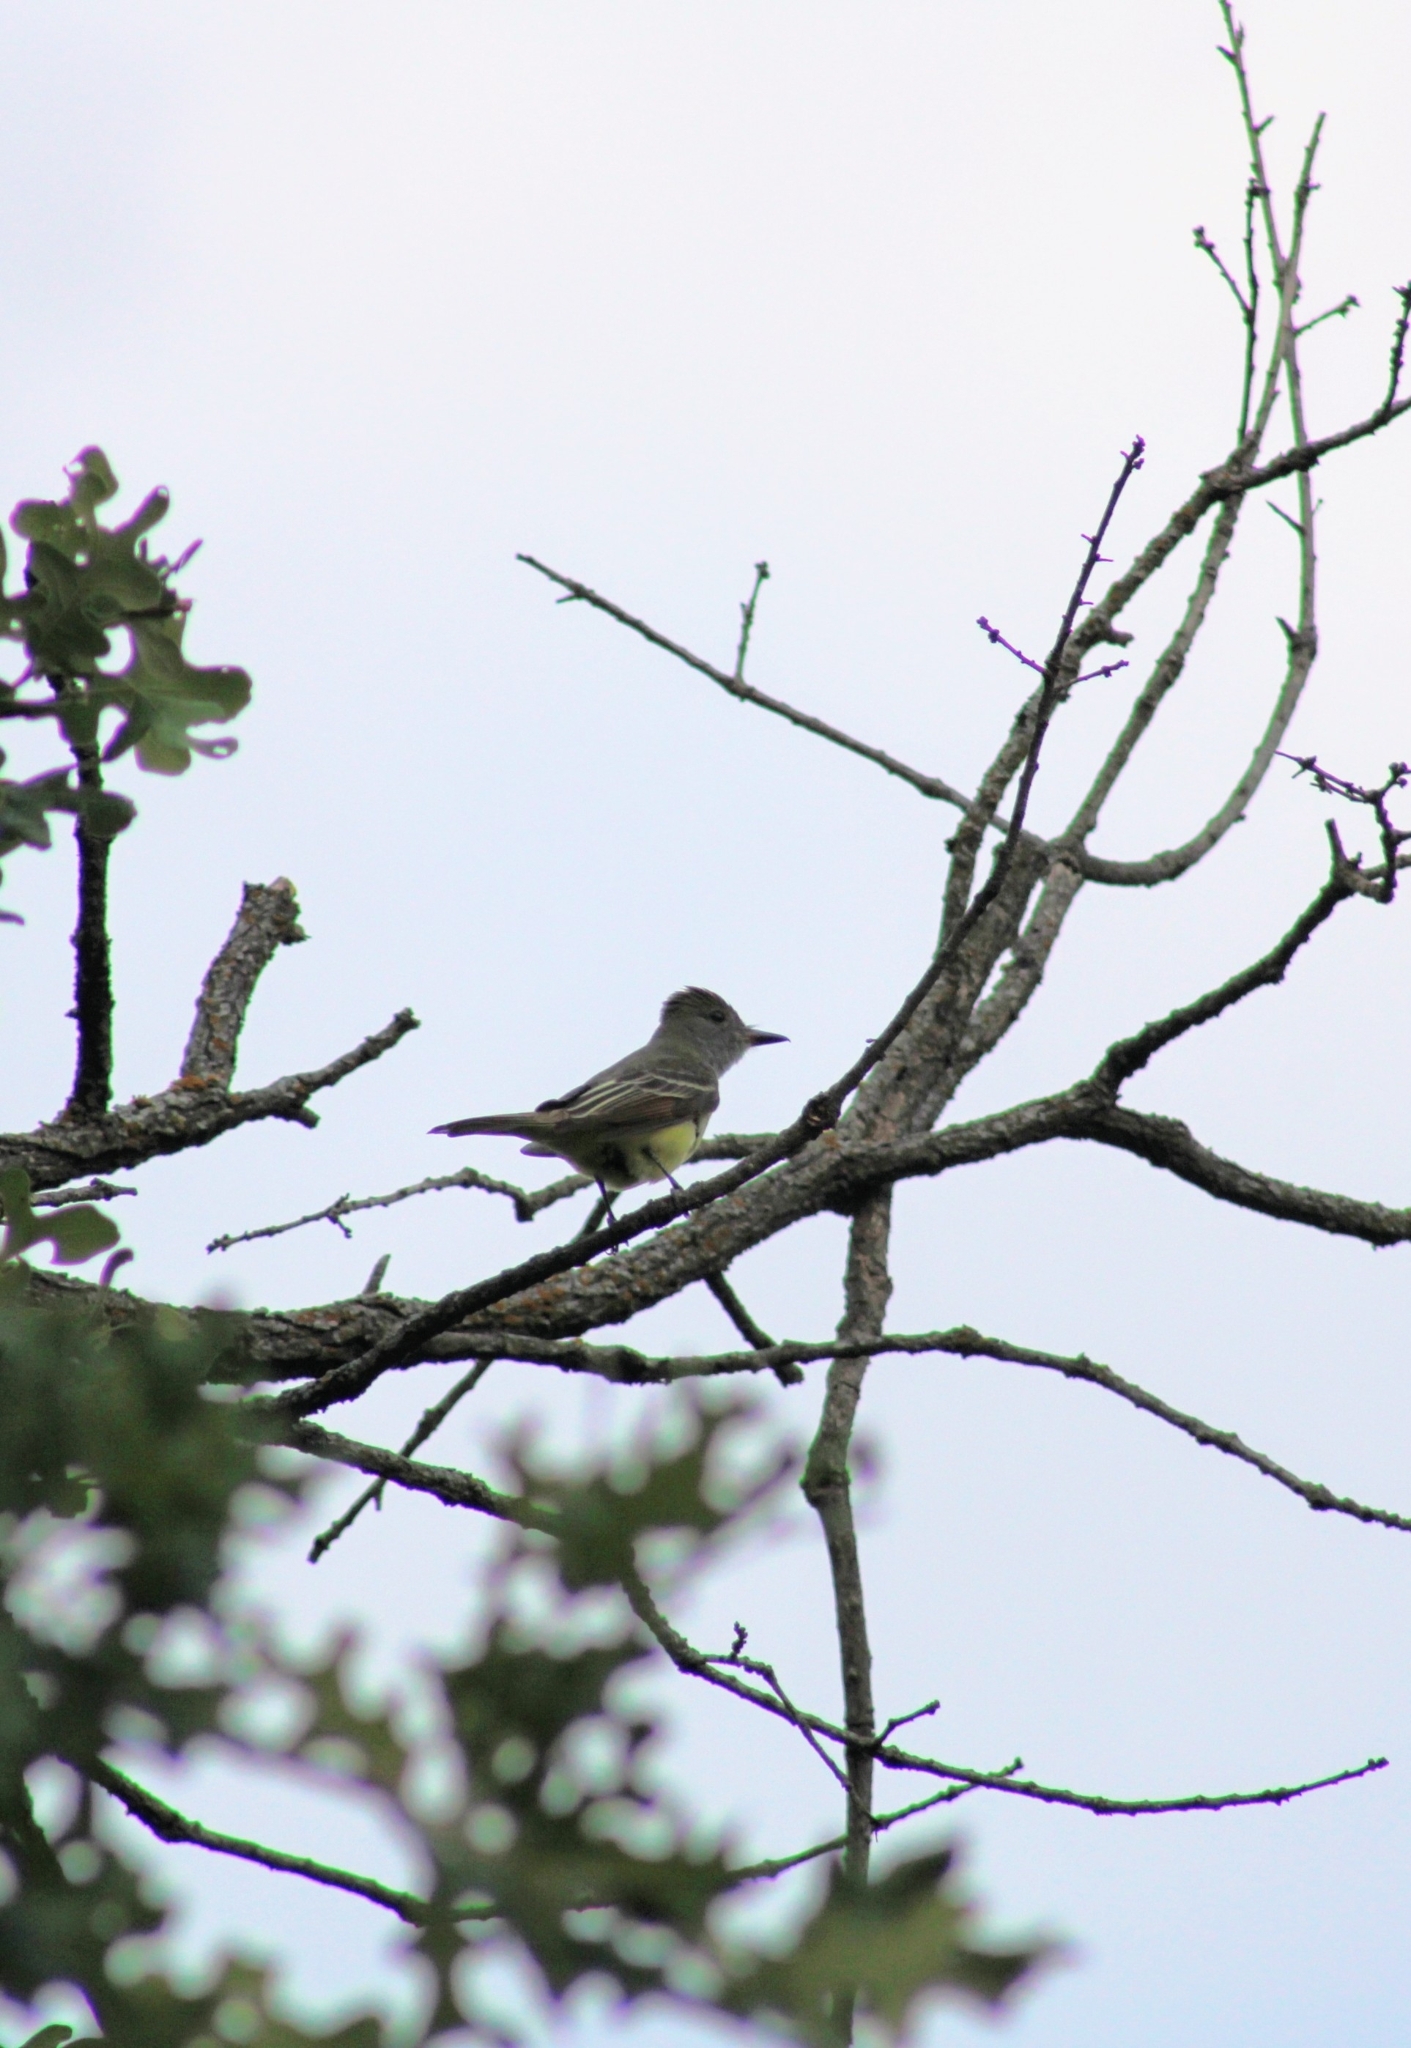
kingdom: Animalia
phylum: Chordata
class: Aves
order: Passeriformes
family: Tyrannidae
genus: Myiarchus
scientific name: Myiarchus crinitus
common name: Great crested flycatcher
